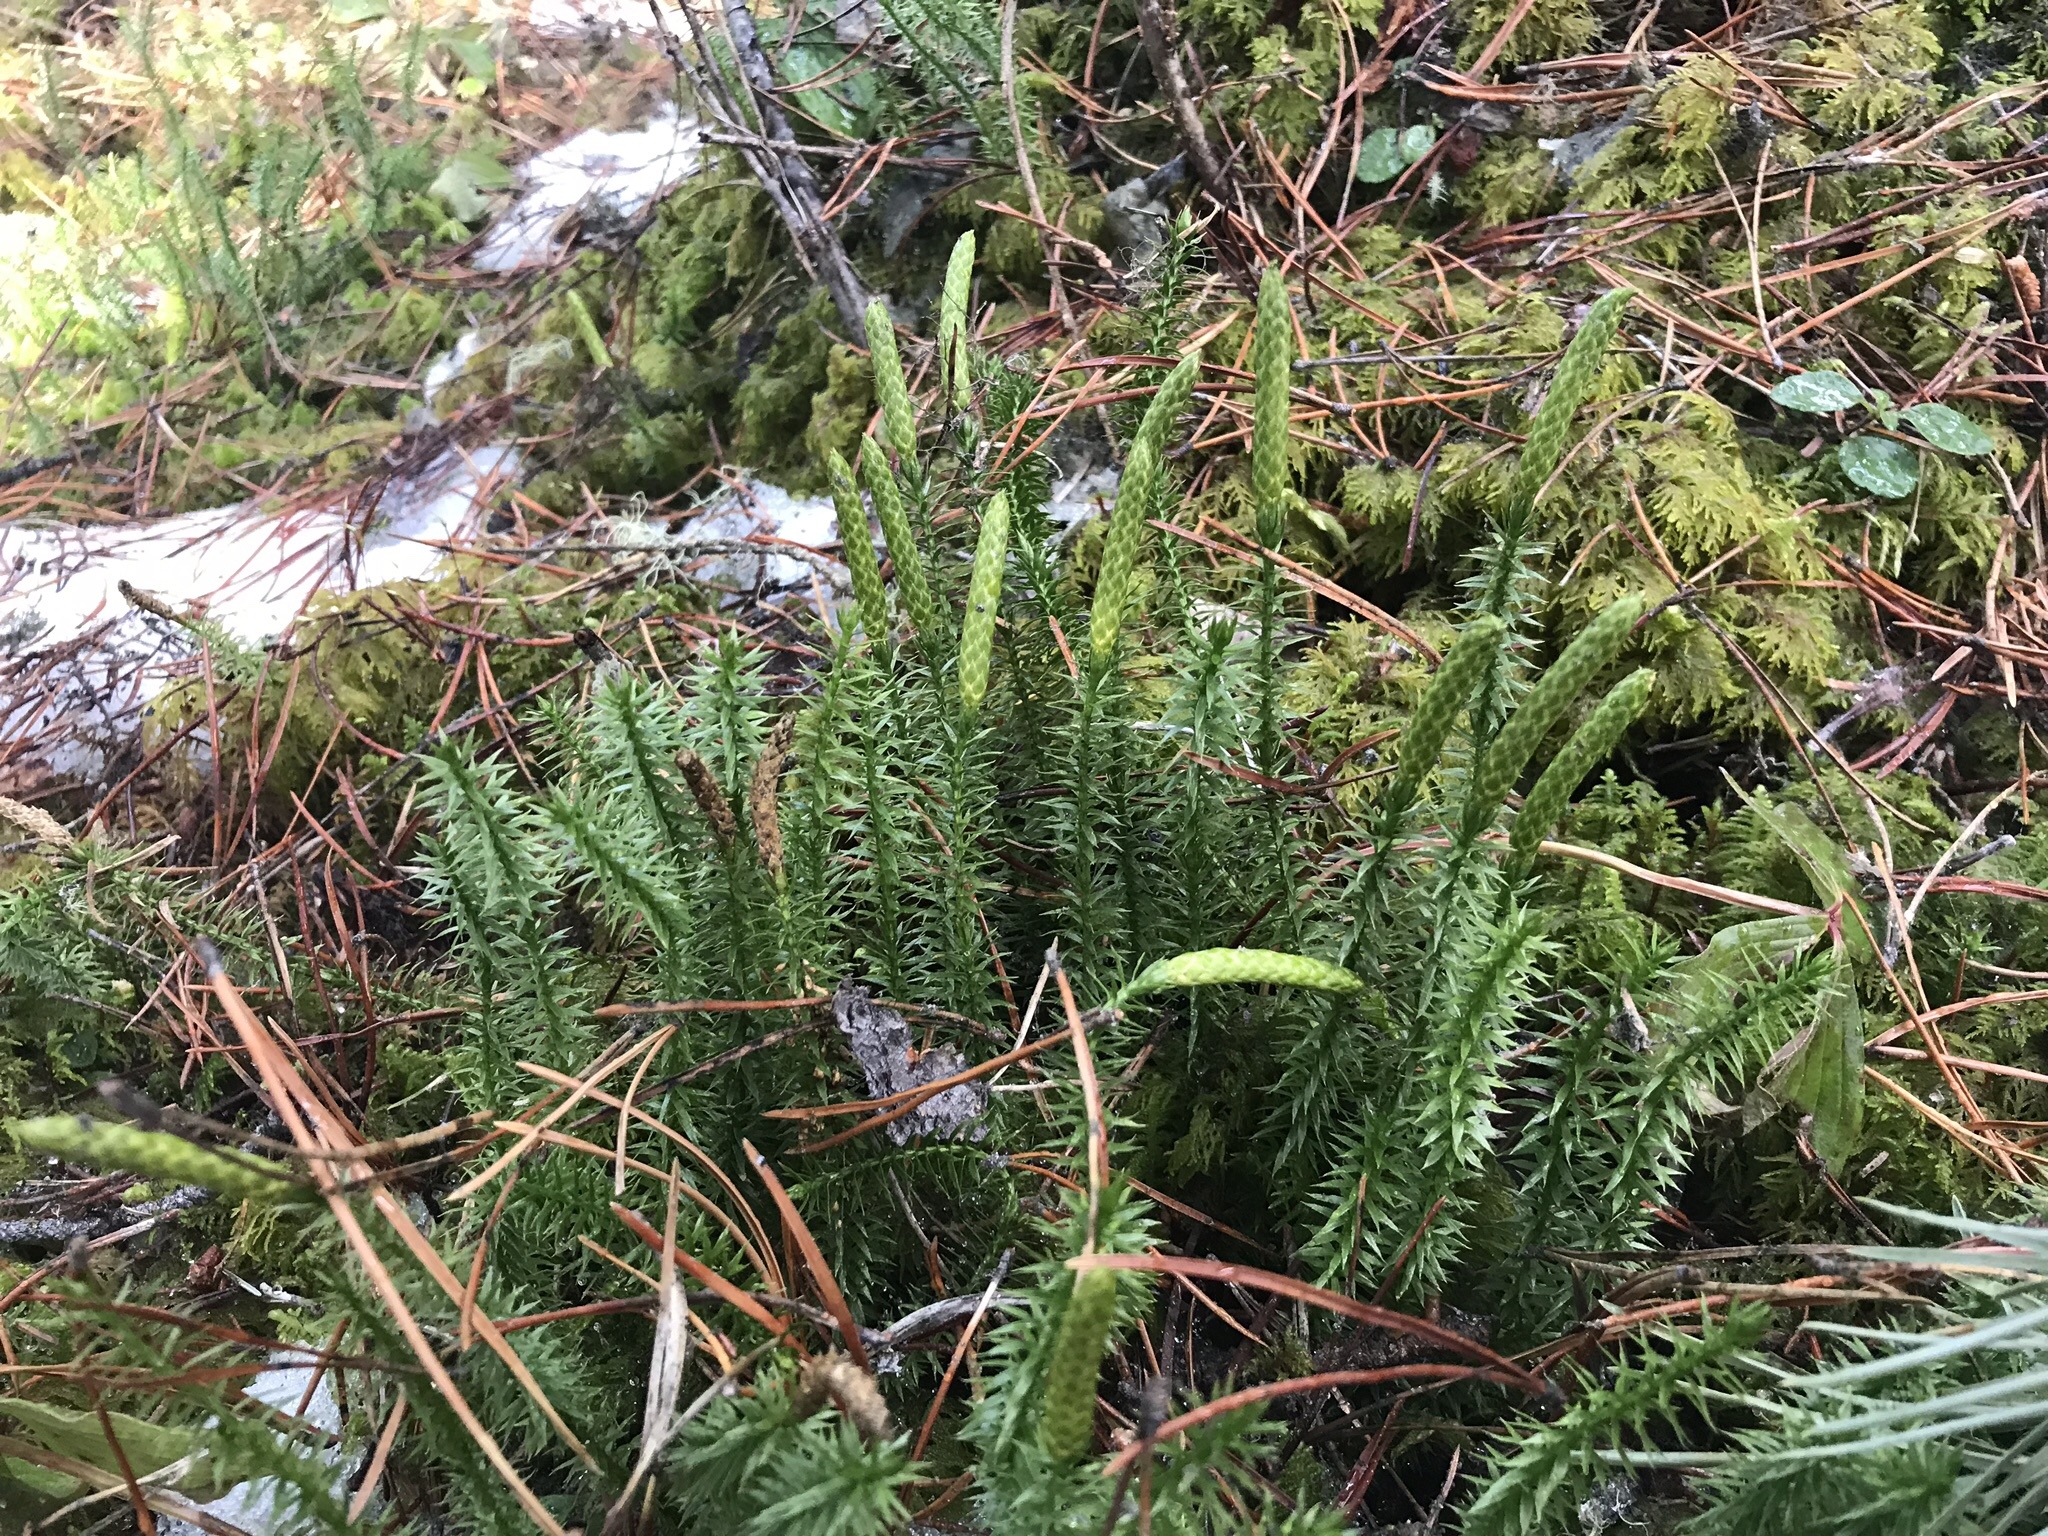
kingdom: Plantae
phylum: Tracheophyta
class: Lycopodiopsida
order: Lycopodiales
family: Lycopodiaceae
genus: Spinulum
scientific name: Spinulum annotinum
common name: Interrupted club-moss
